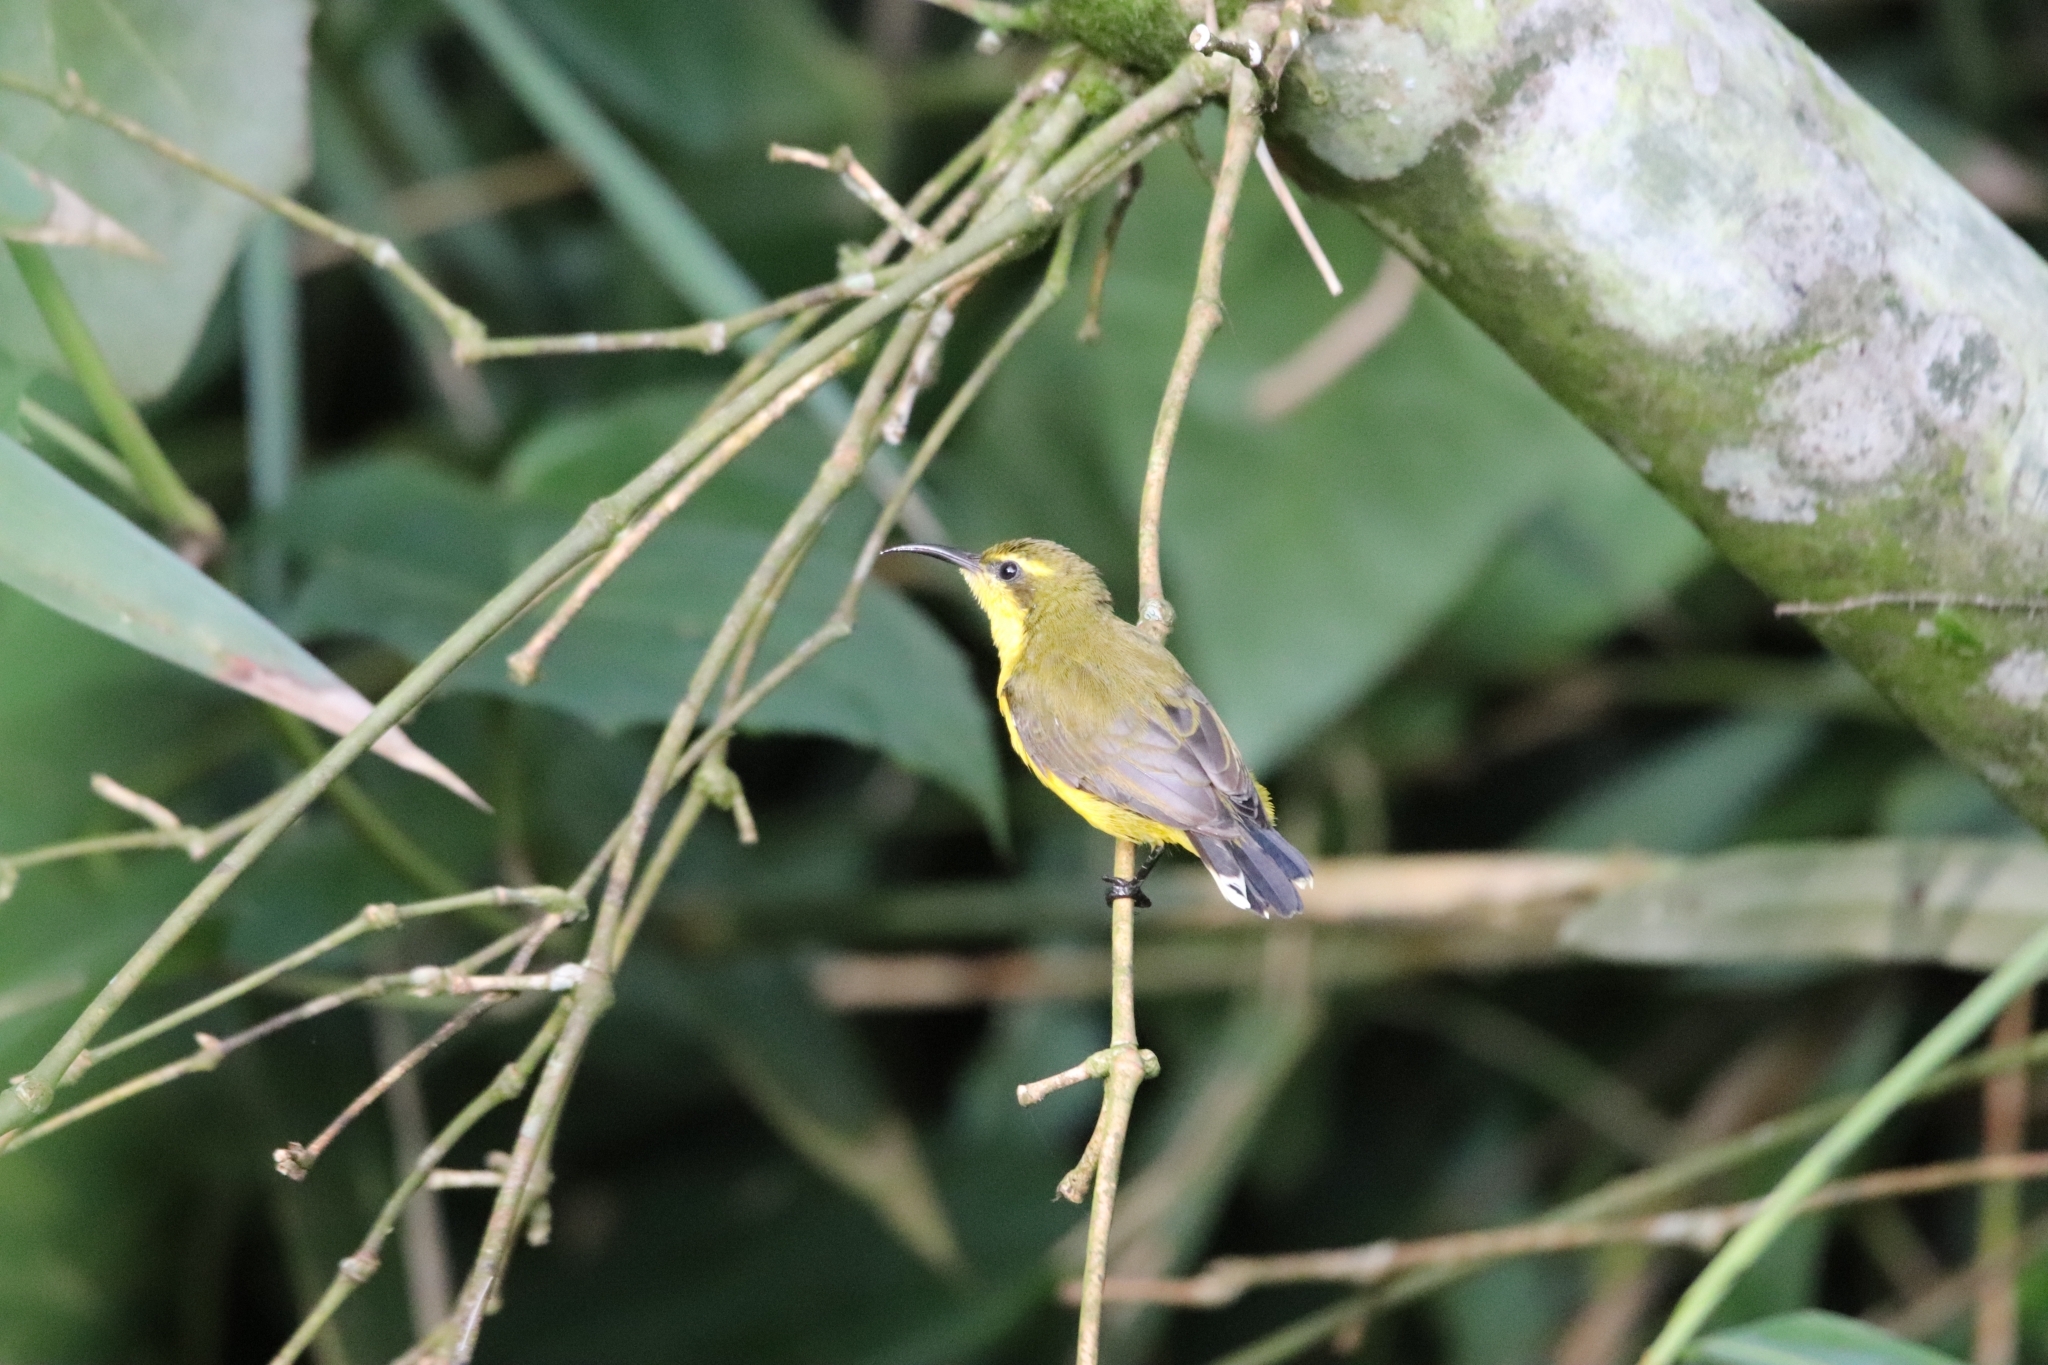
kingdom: Animalia
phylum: Chordata
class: Aves
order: Passeriformes
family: Nectariniidae
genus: Cinnyris
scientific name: Cinnyris
